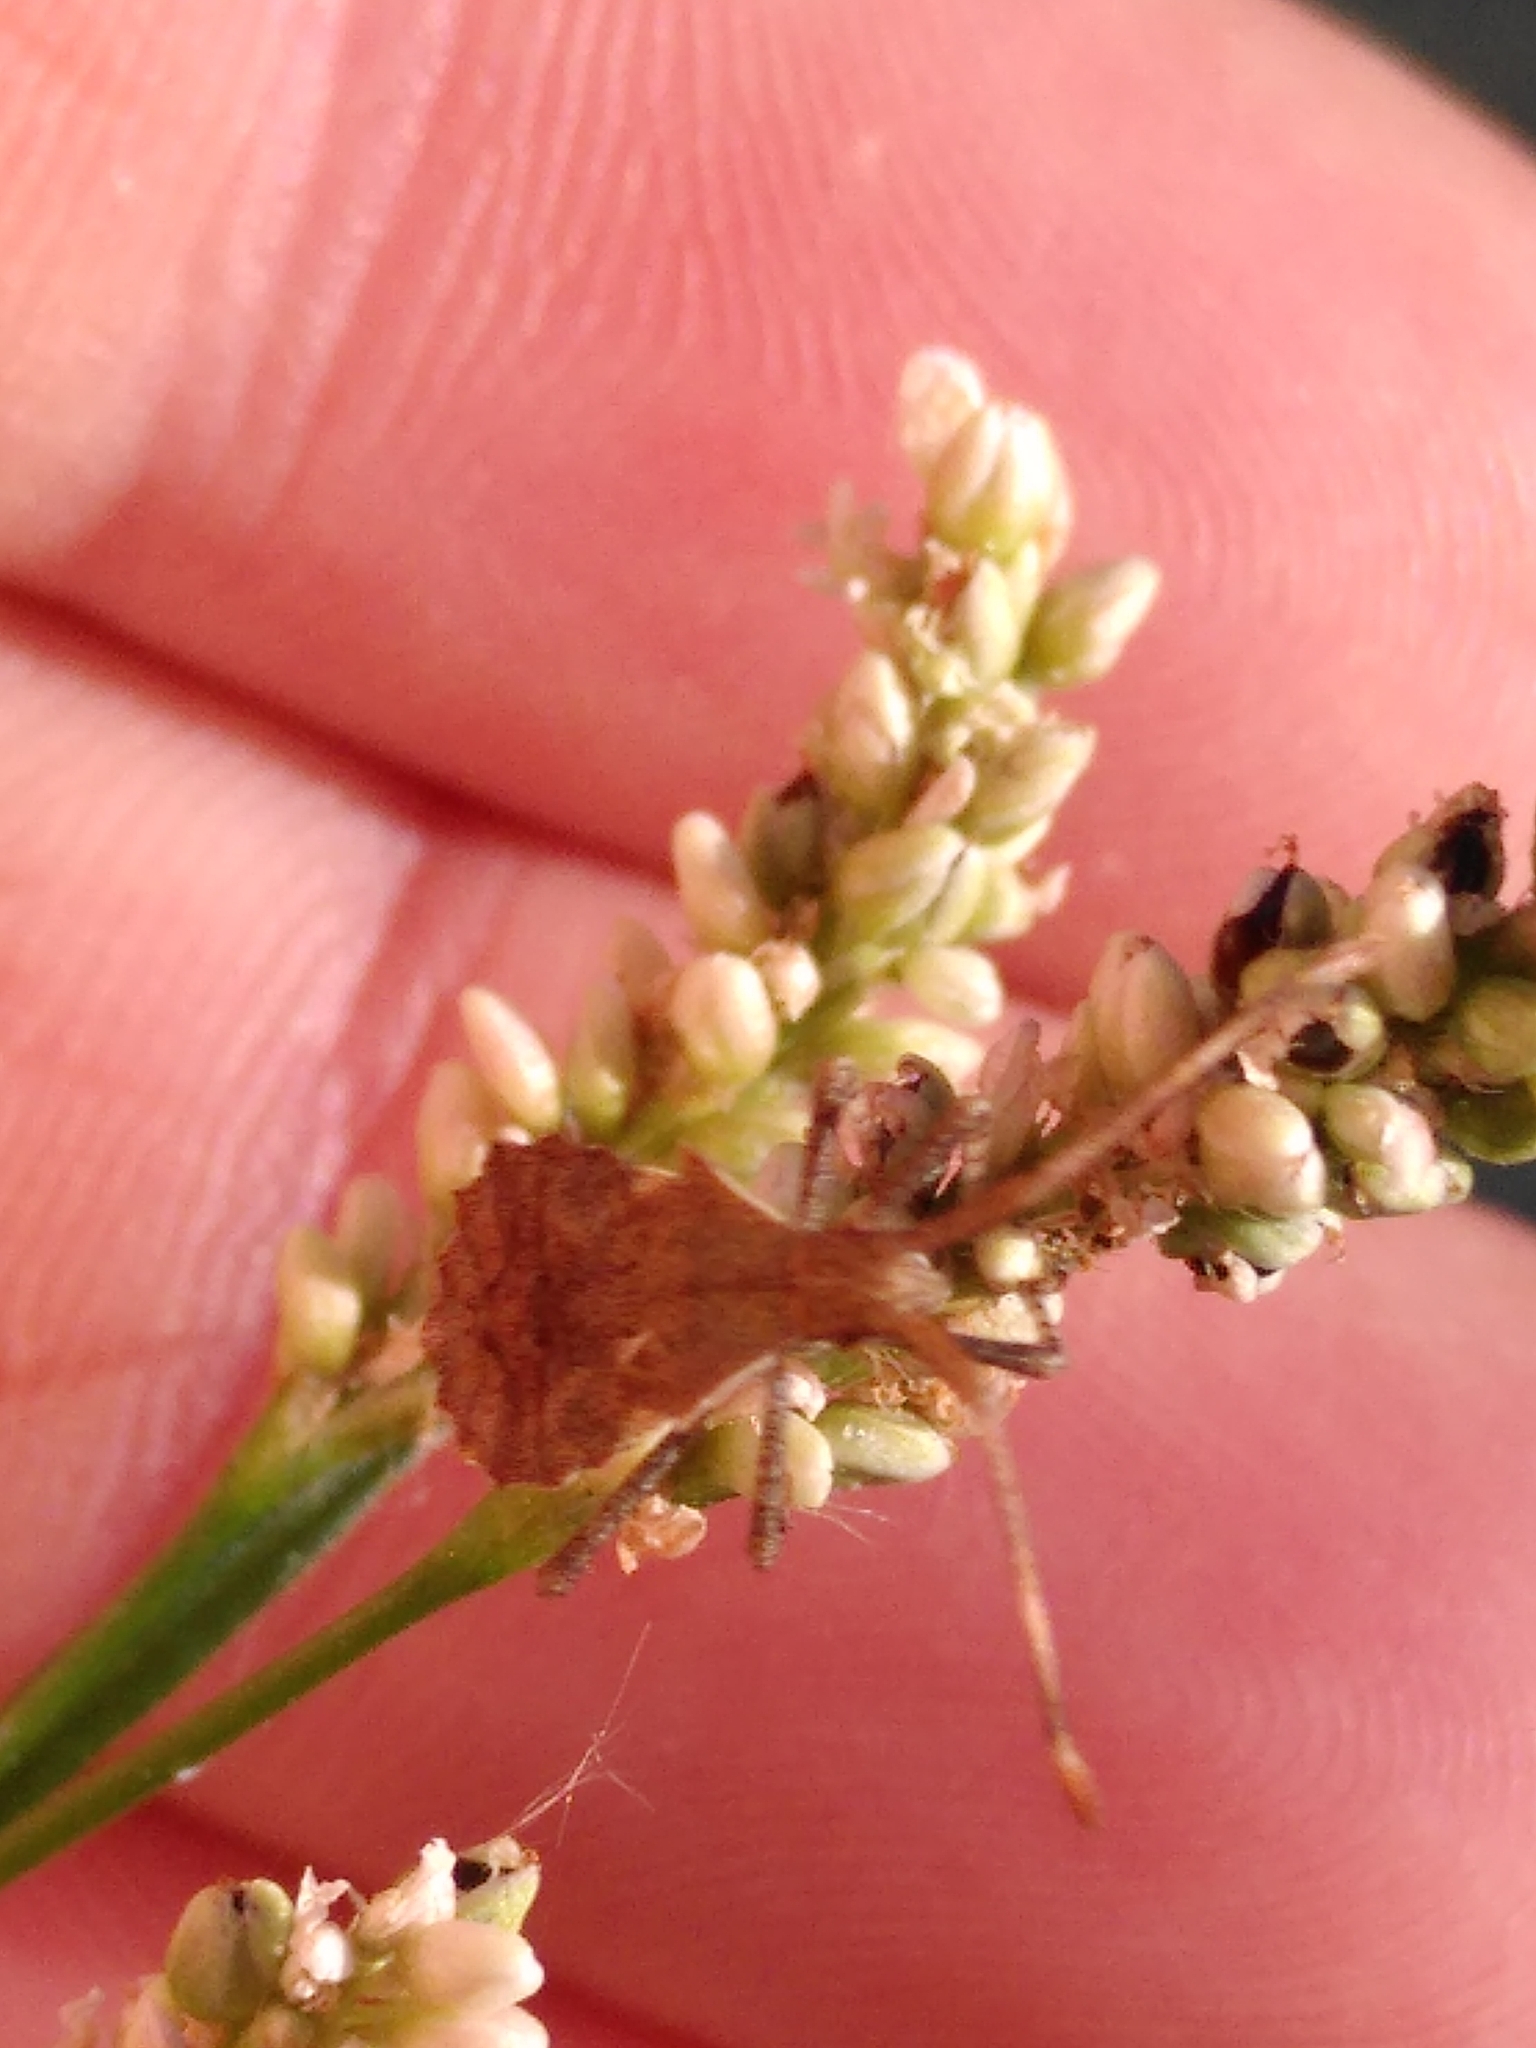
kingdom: Animalia
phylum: Arthropoda
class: Insecta
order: Hemiptera
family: Coreidae
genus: Coreus
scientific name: Coreus marginatus
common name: Dock bug
